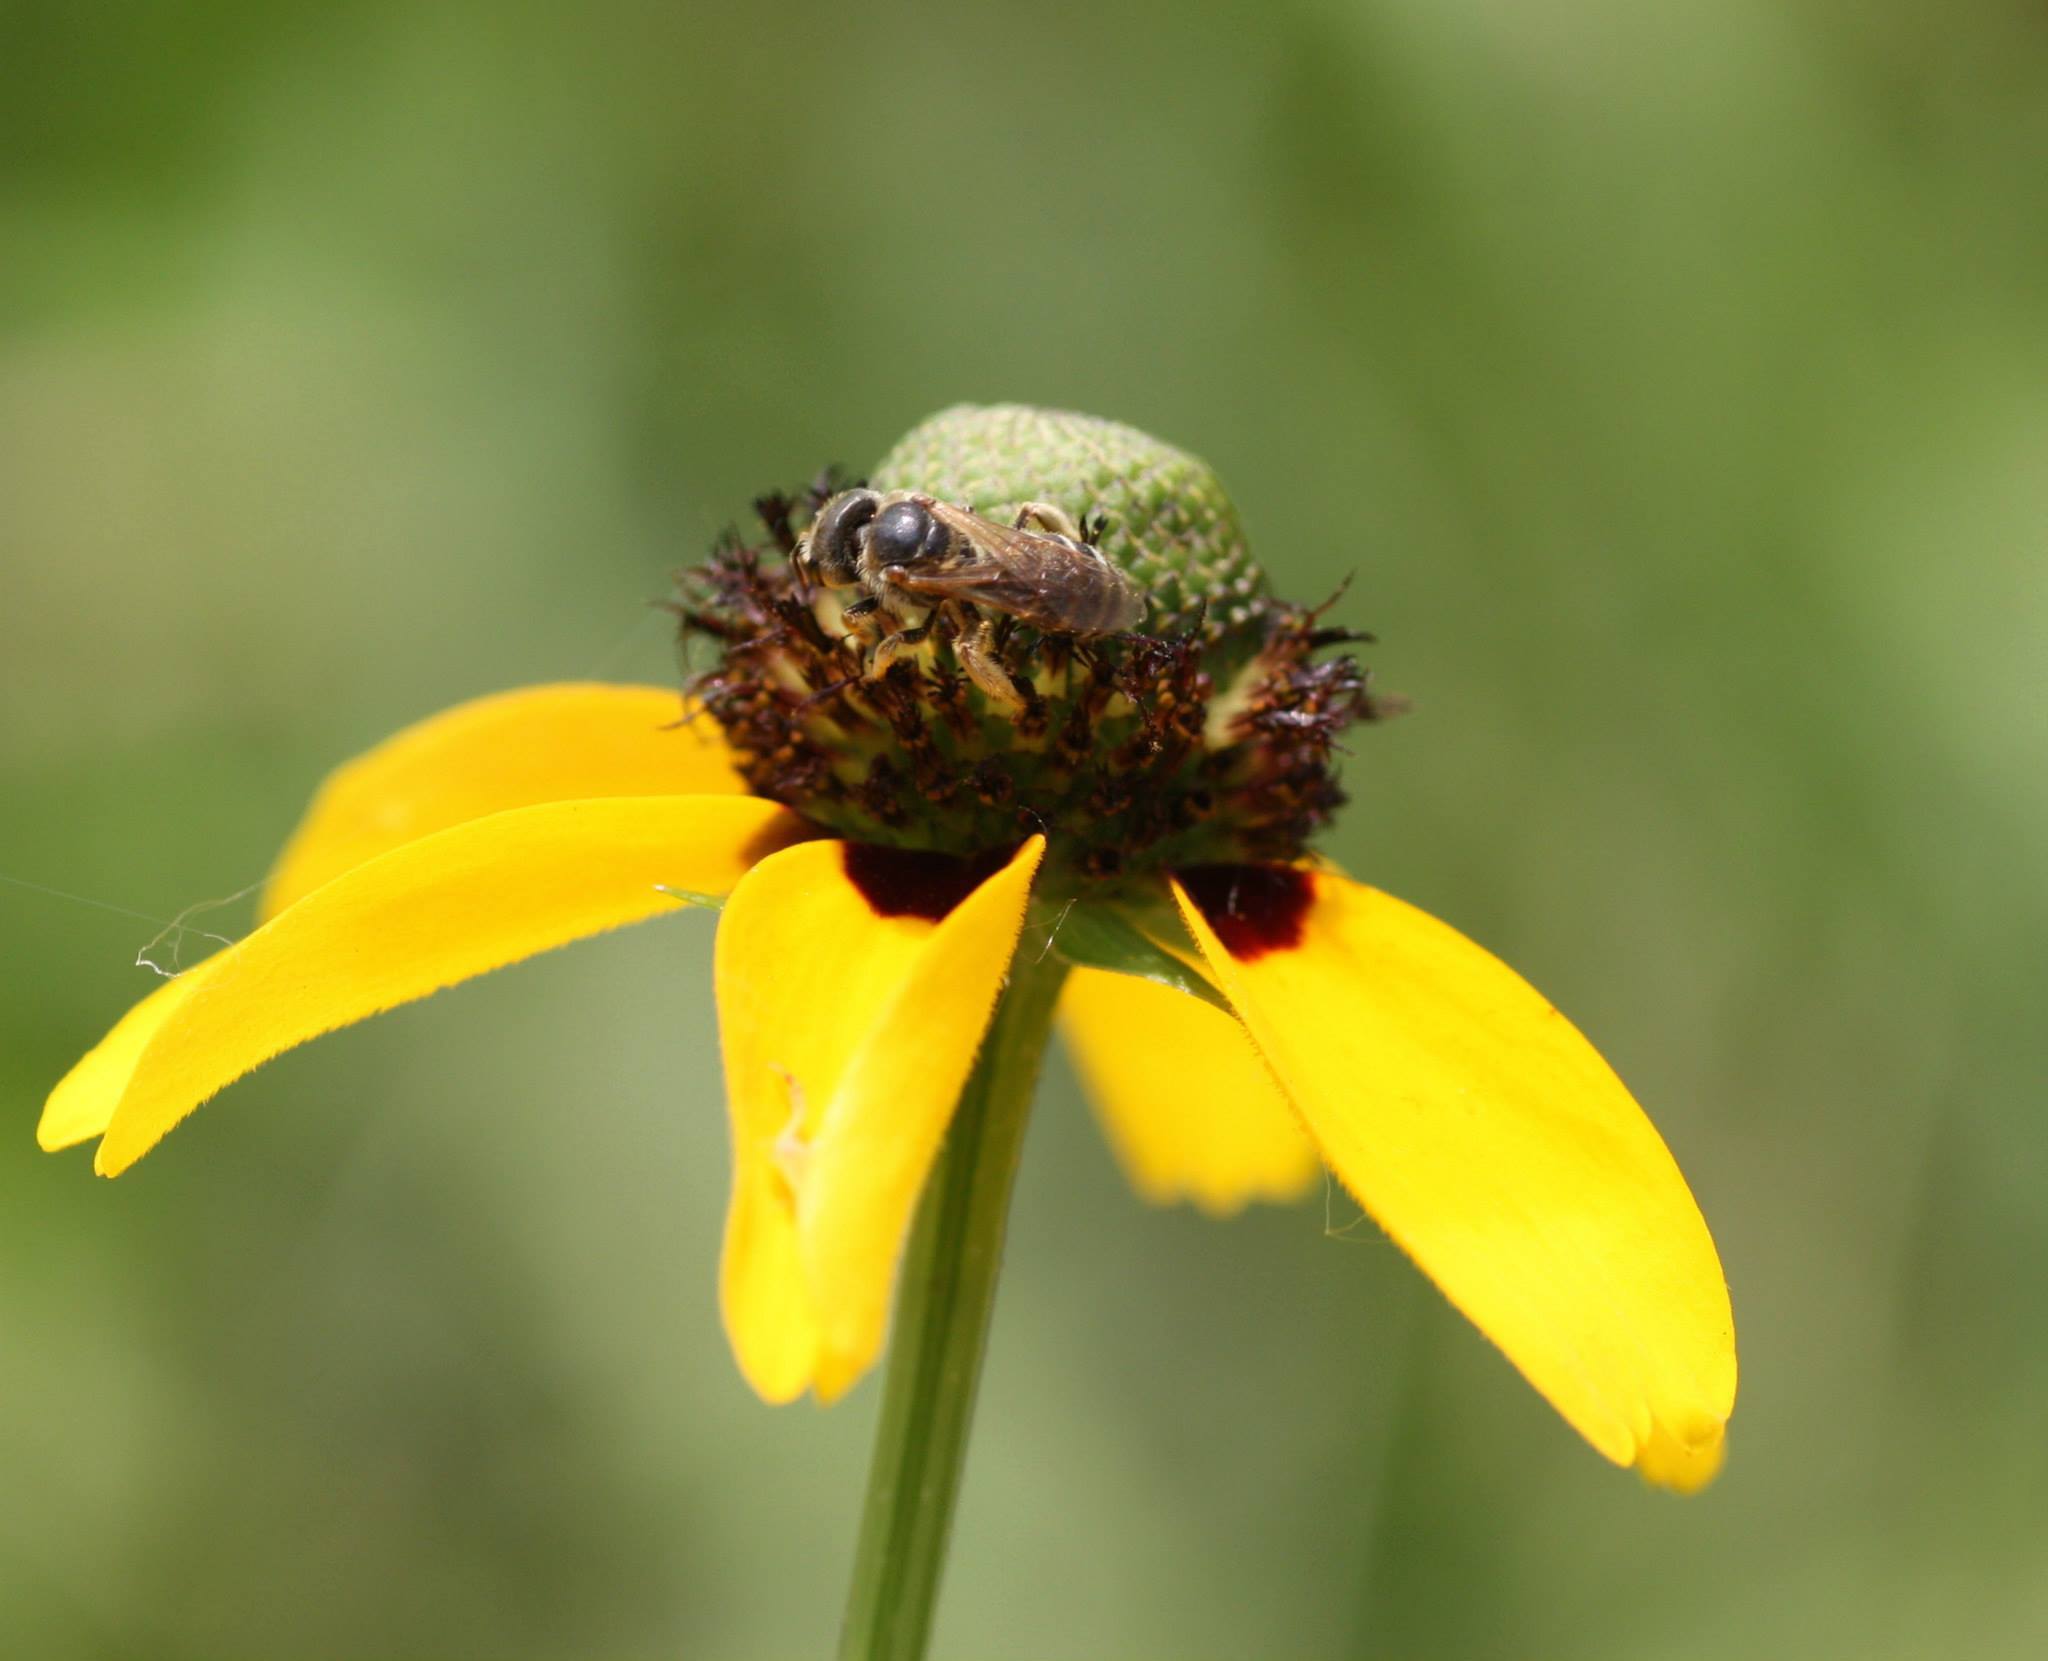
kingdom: Animalia
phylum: Arthropoda
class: Insecta
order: Hymenoptera
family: Halictidae
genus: Halictus
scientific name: Halictus ligatus
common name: Ligated furrow bee
